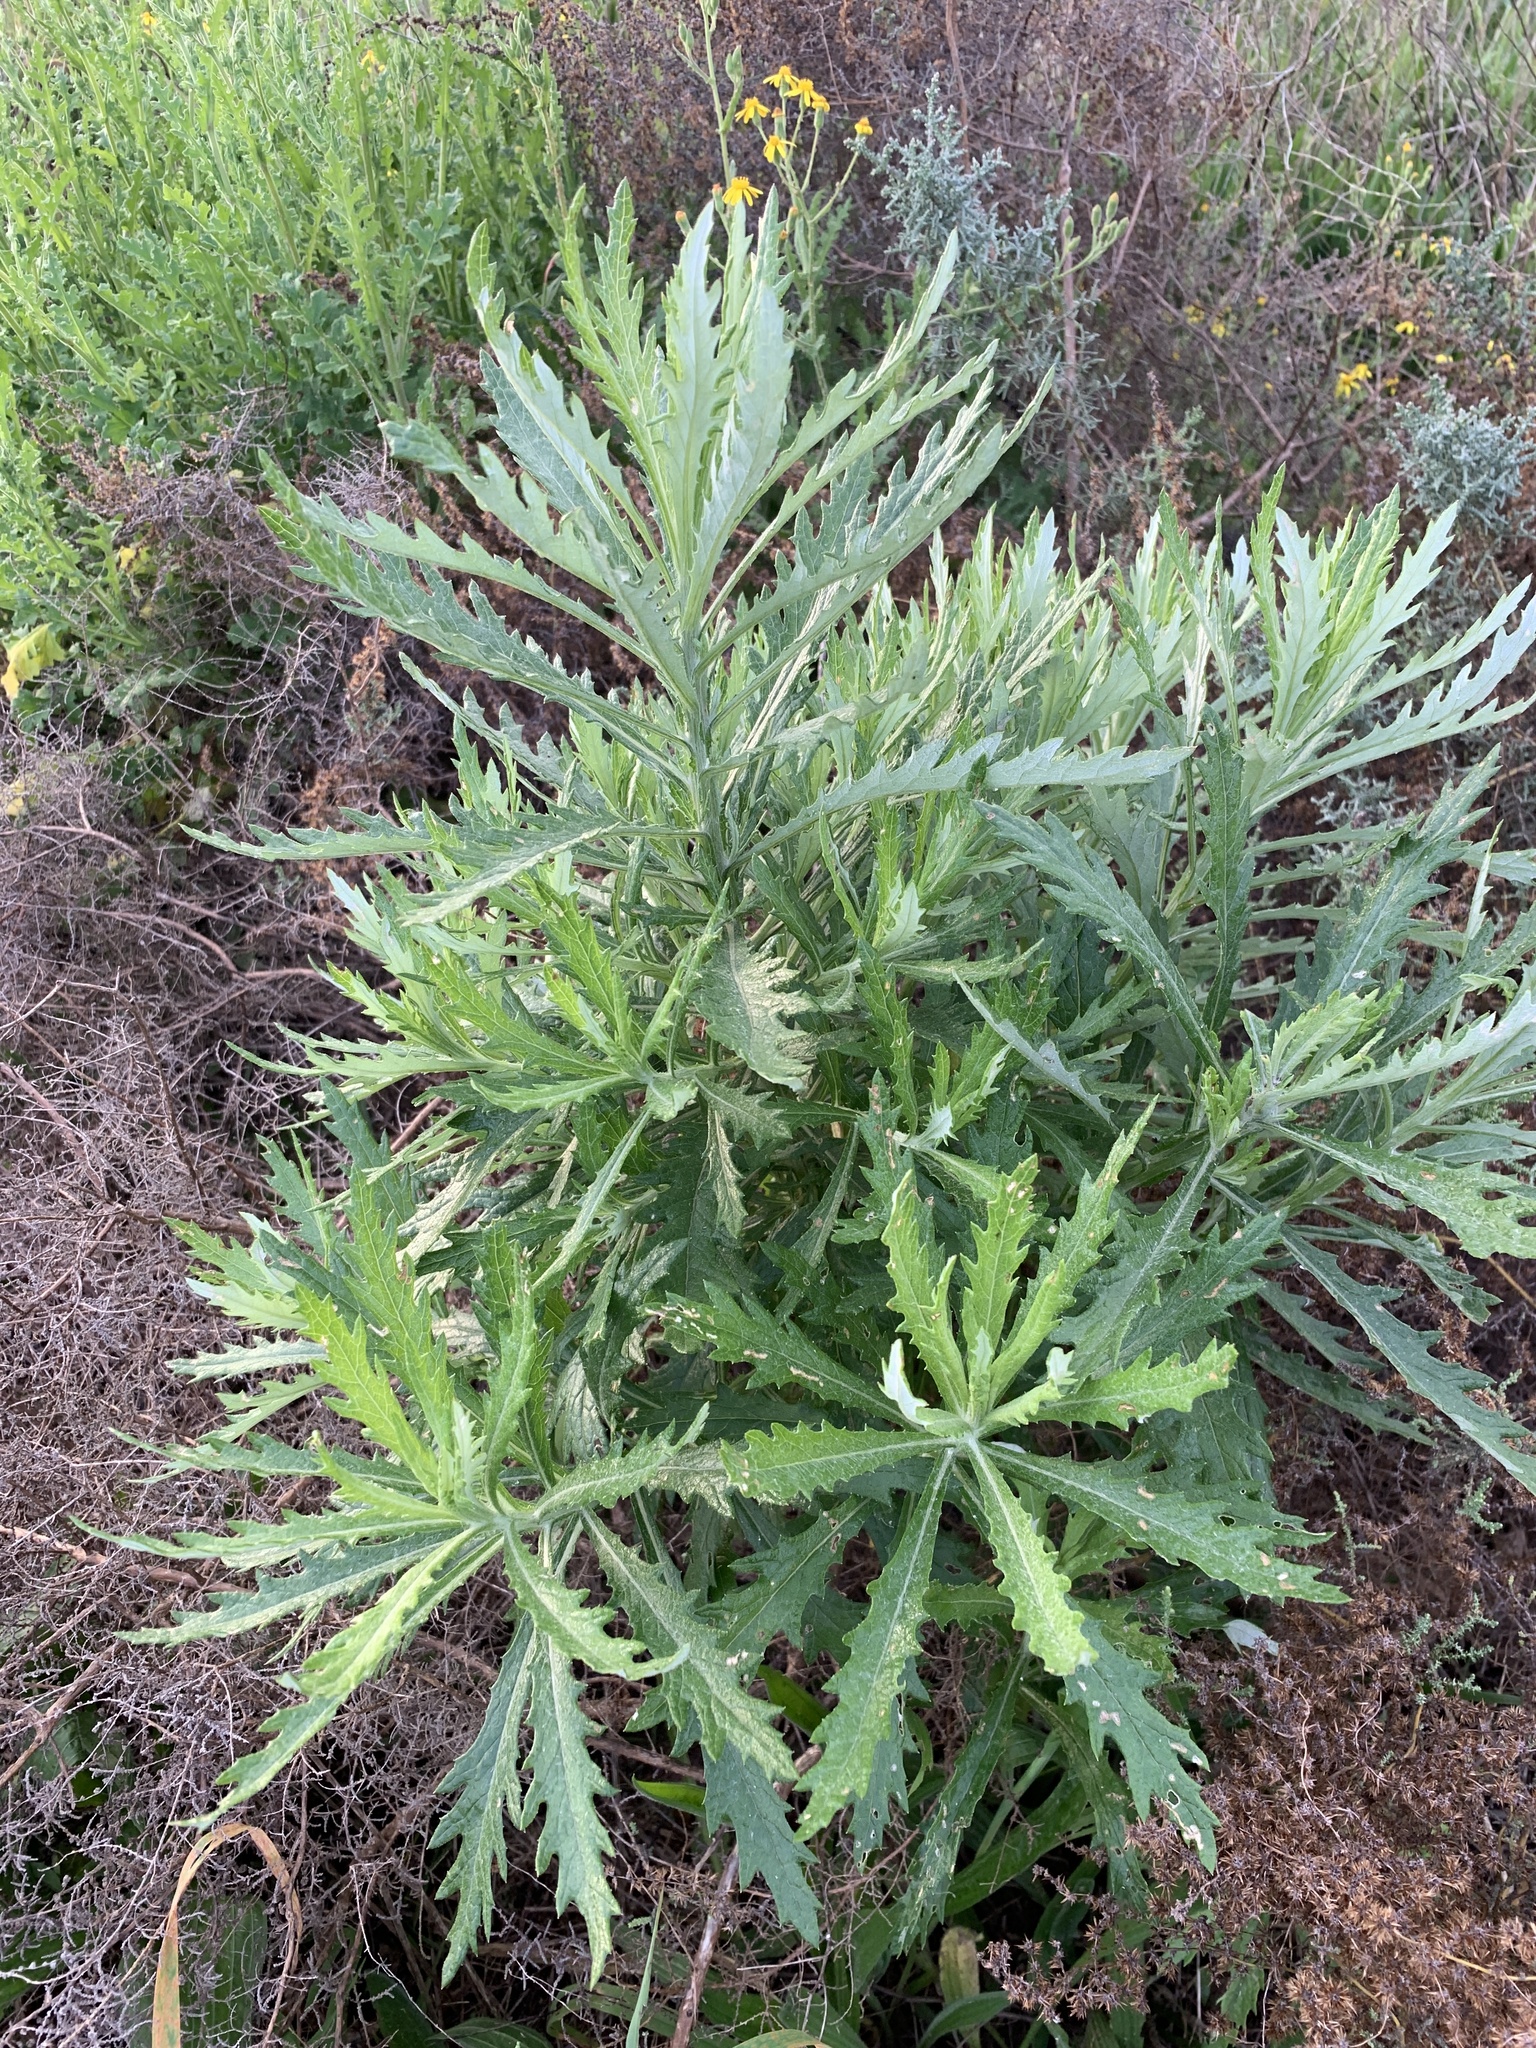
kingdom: Plantae
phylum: Tracheophyta
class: Magnoliopsida
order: Asterales
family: Asteraceae
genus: Senecio
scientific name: Senecio pterophorus
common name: Shoddy ragwort
